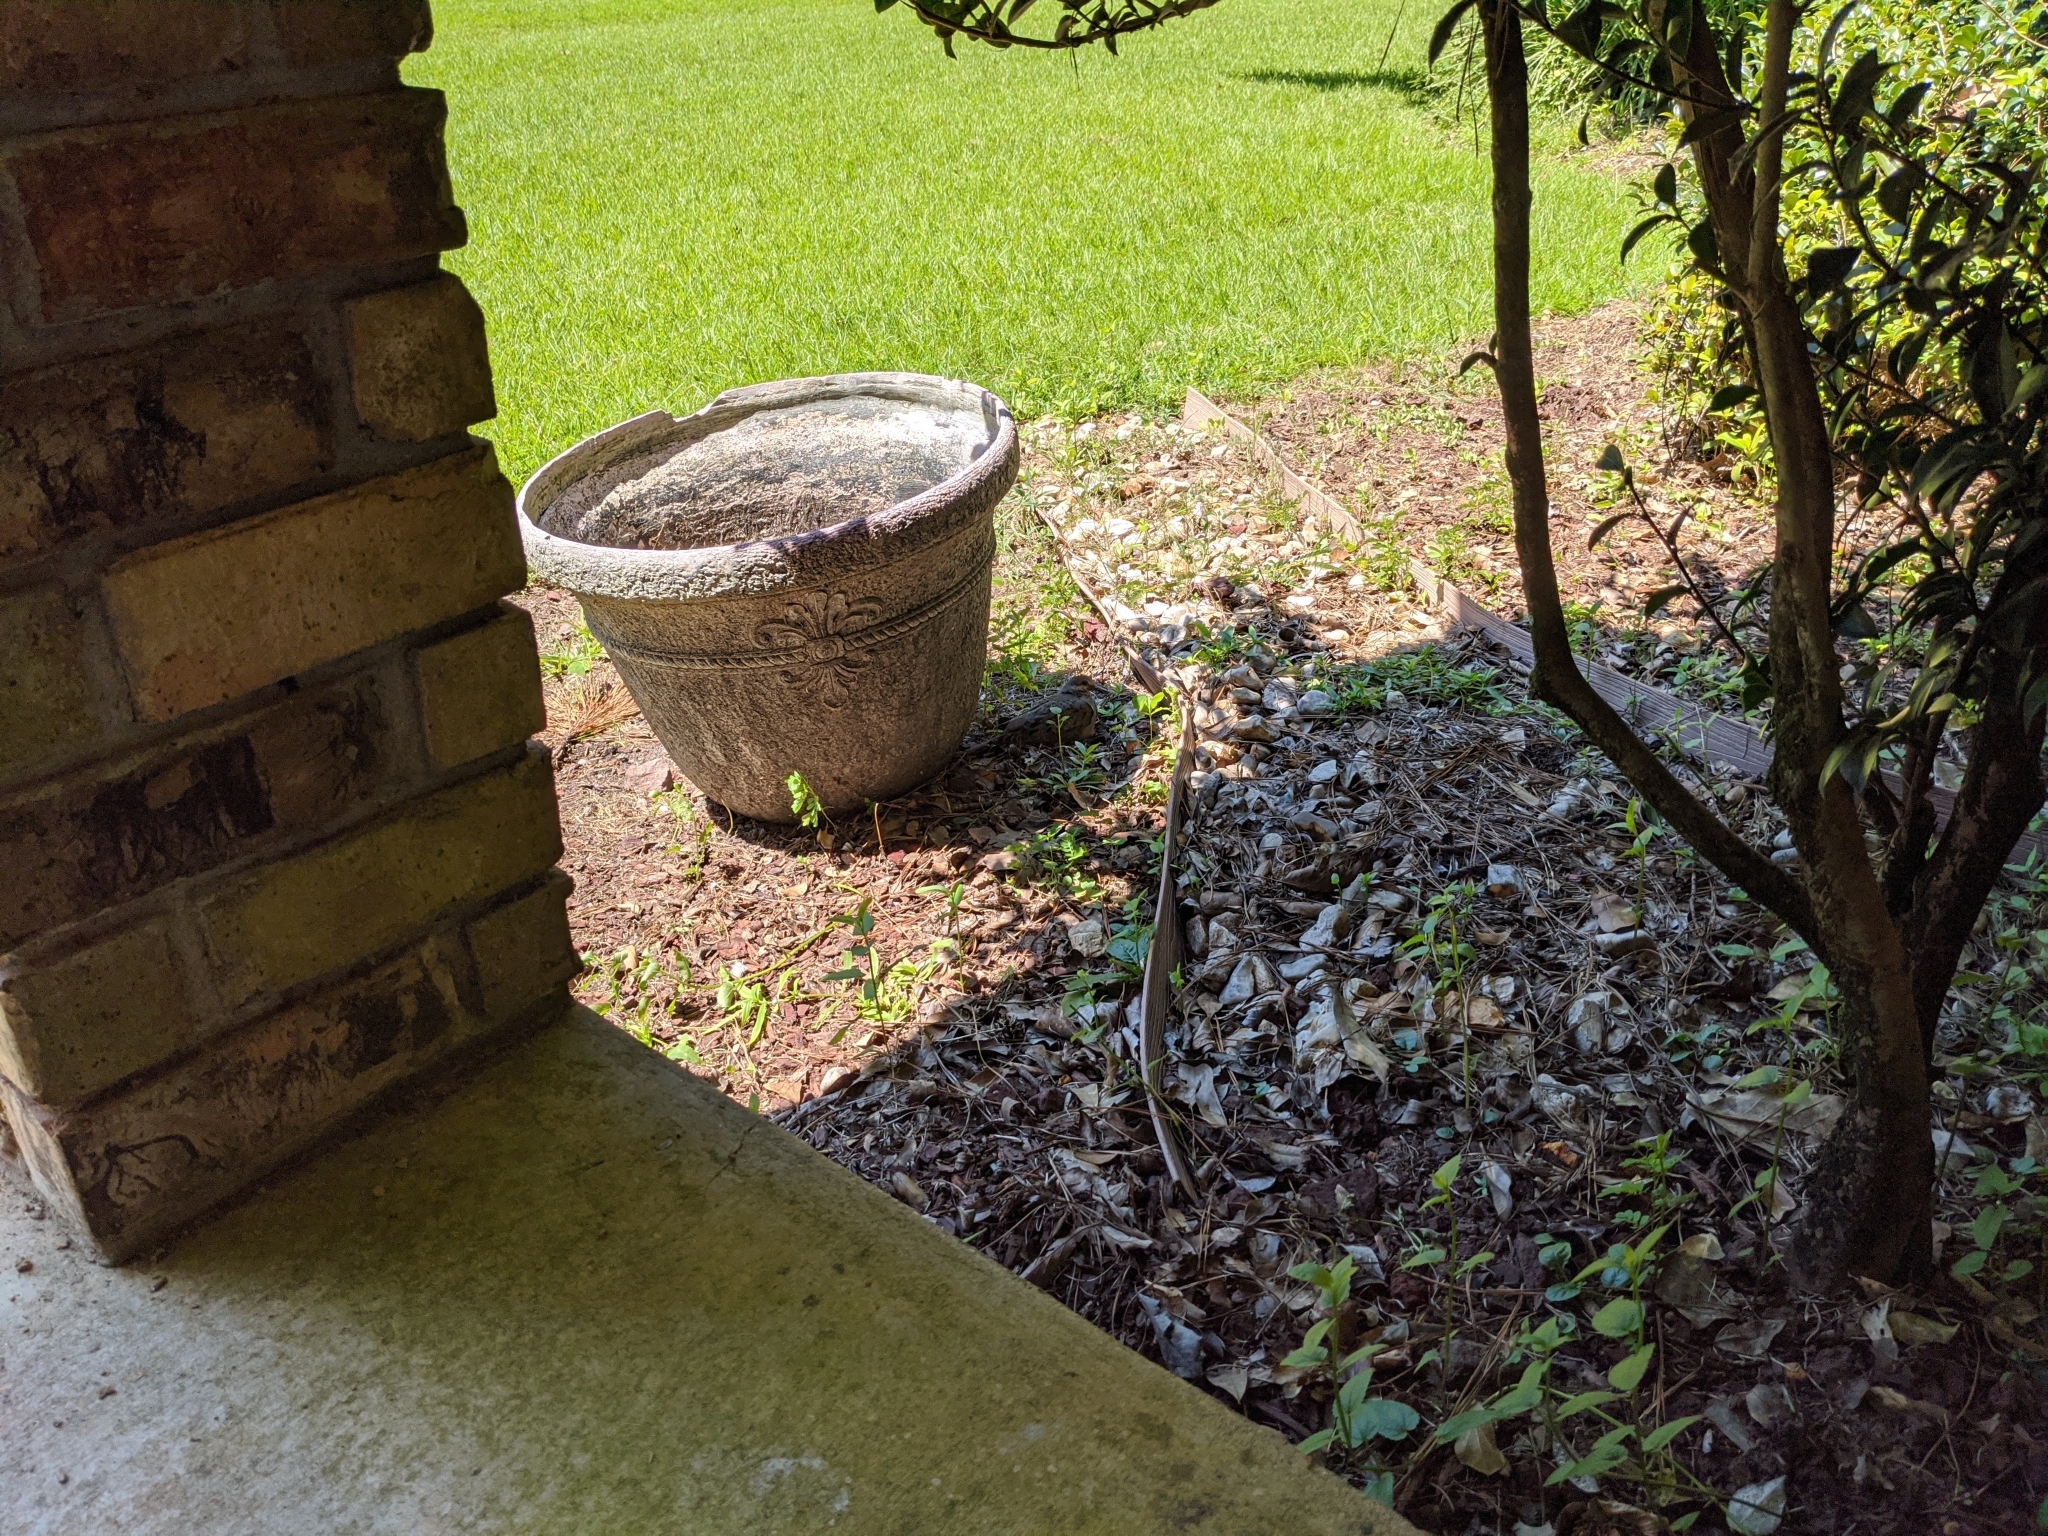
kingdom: Animalia
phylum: Chordata
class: Aves
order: Columbiformes
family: Columbidae
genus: Zenaida
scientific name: Zenaida macroura
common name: Mourning dove
